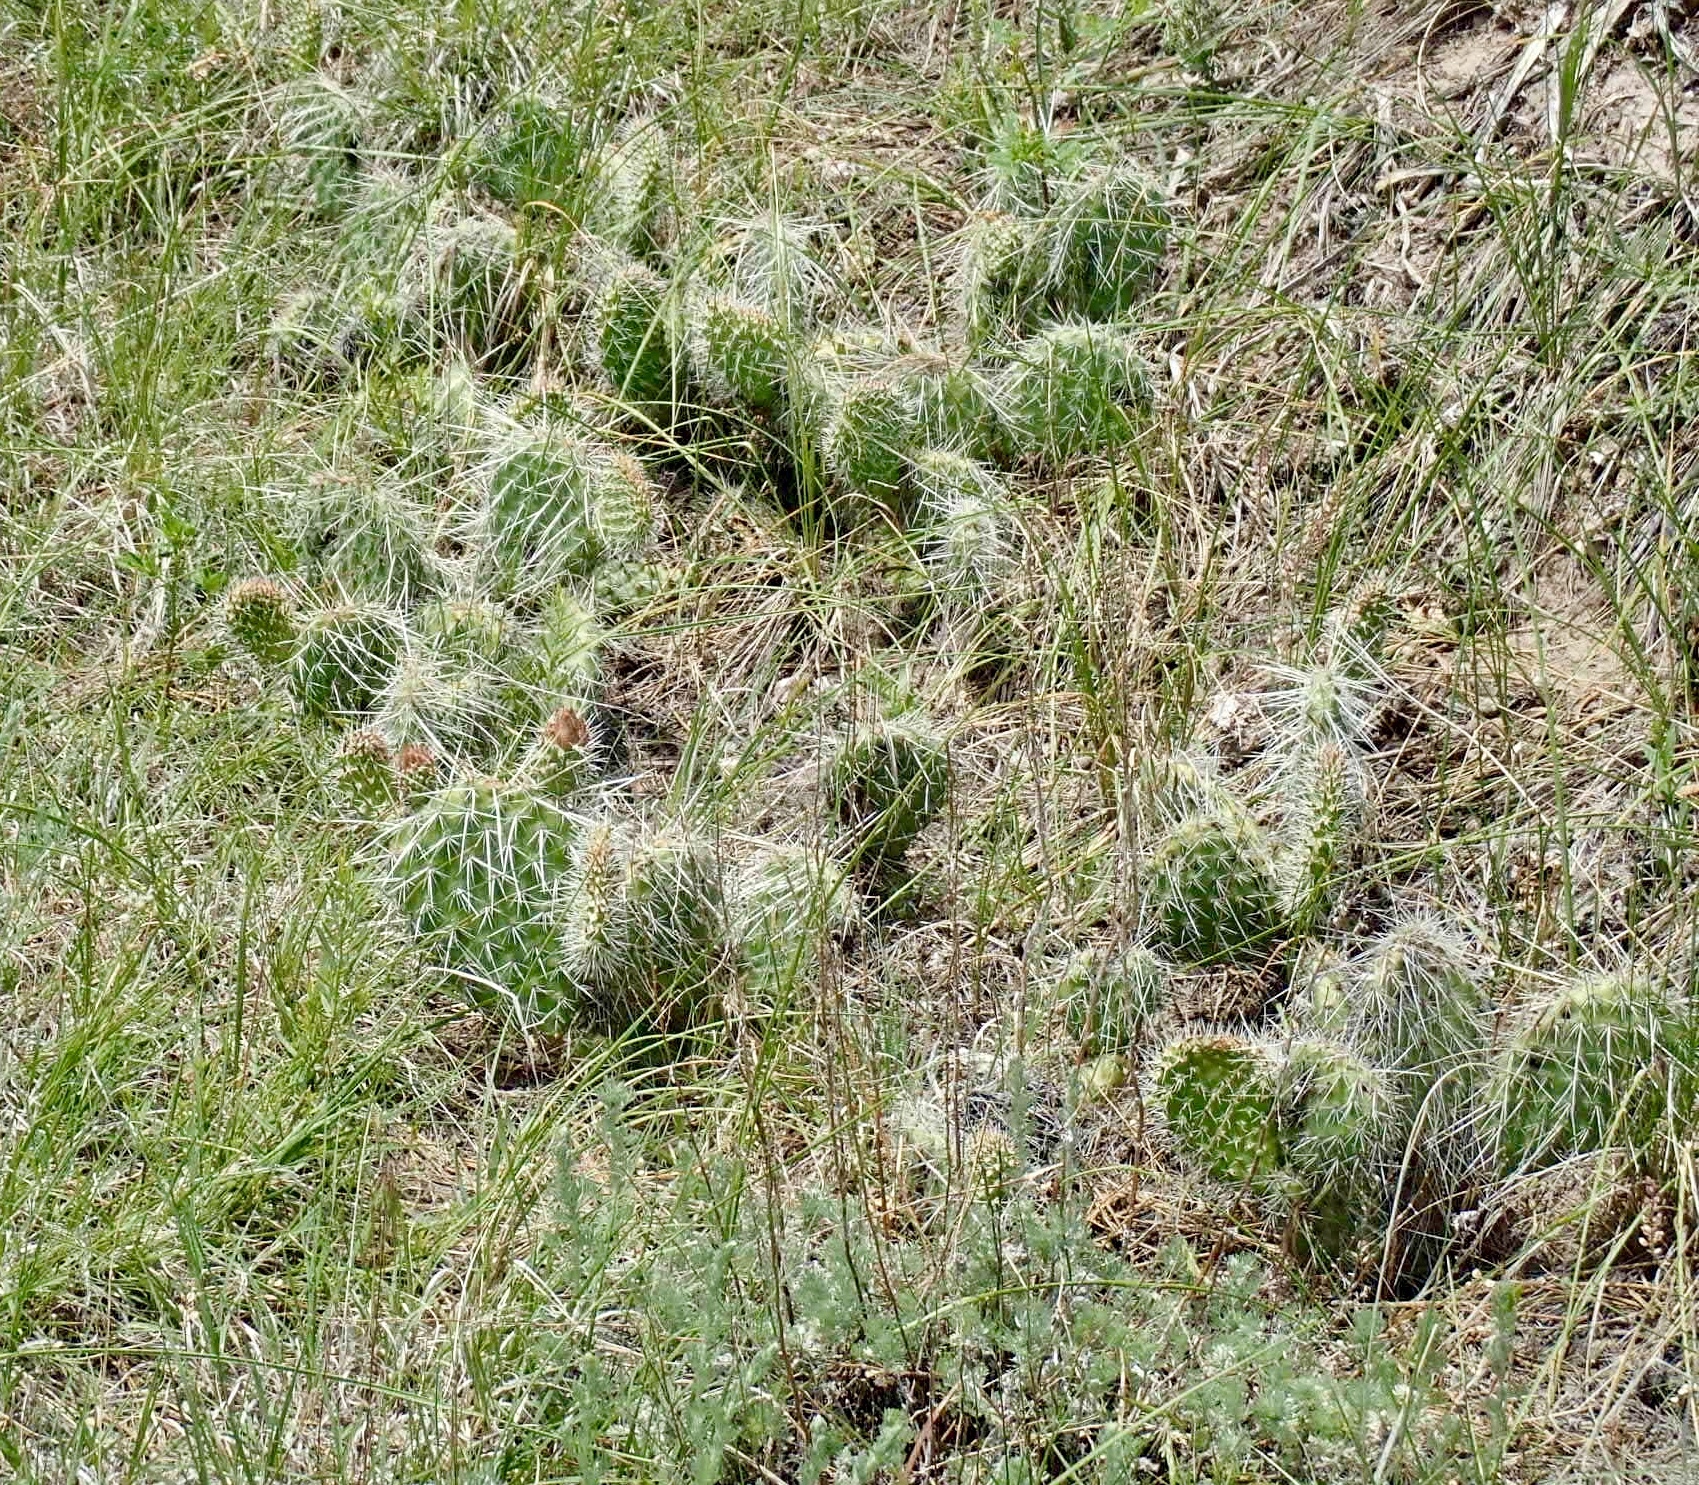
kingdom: Plantae
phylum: Tracheophyta
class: Magnoliopsida
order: Caryophyllales
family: Cactaceae
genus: Opuntia
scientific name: Opuntia polyacantha
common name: Plains prickly-pear
